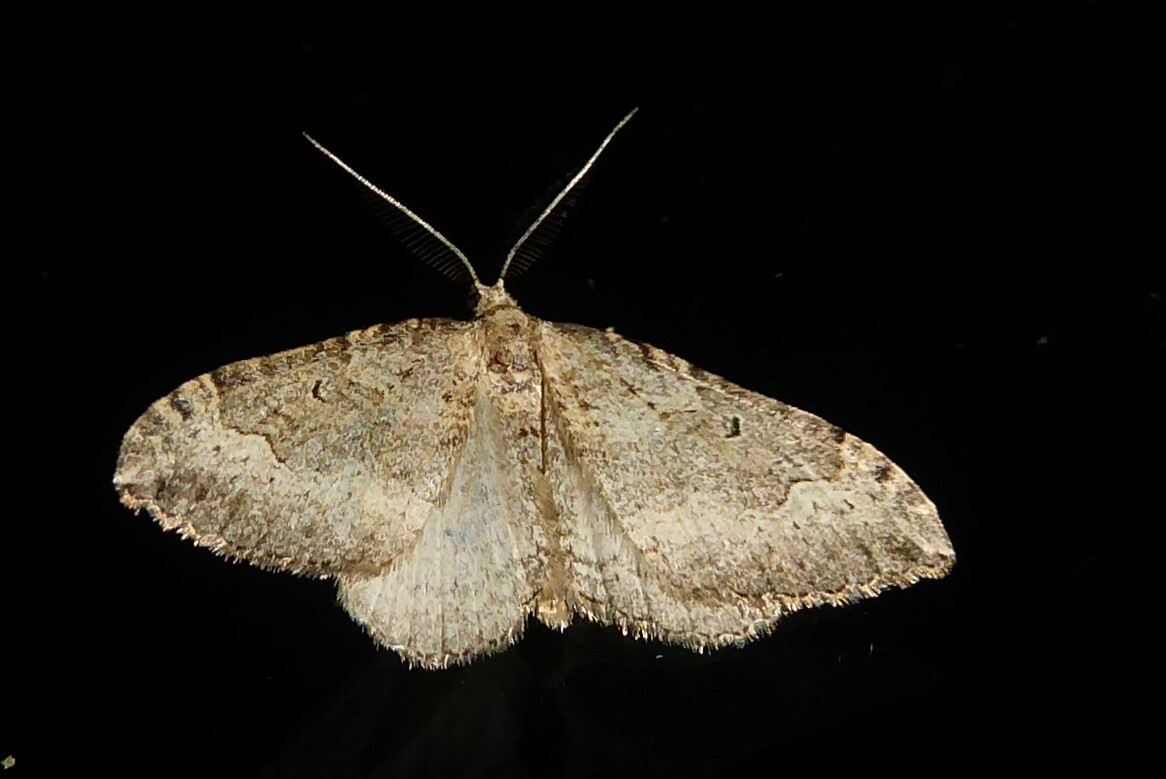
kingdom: Animalia
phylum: Arthropoda
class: Insecta
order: Lepidoptera
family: Geometridae
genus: Epyaxa
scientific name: Epyaxa rosearia
